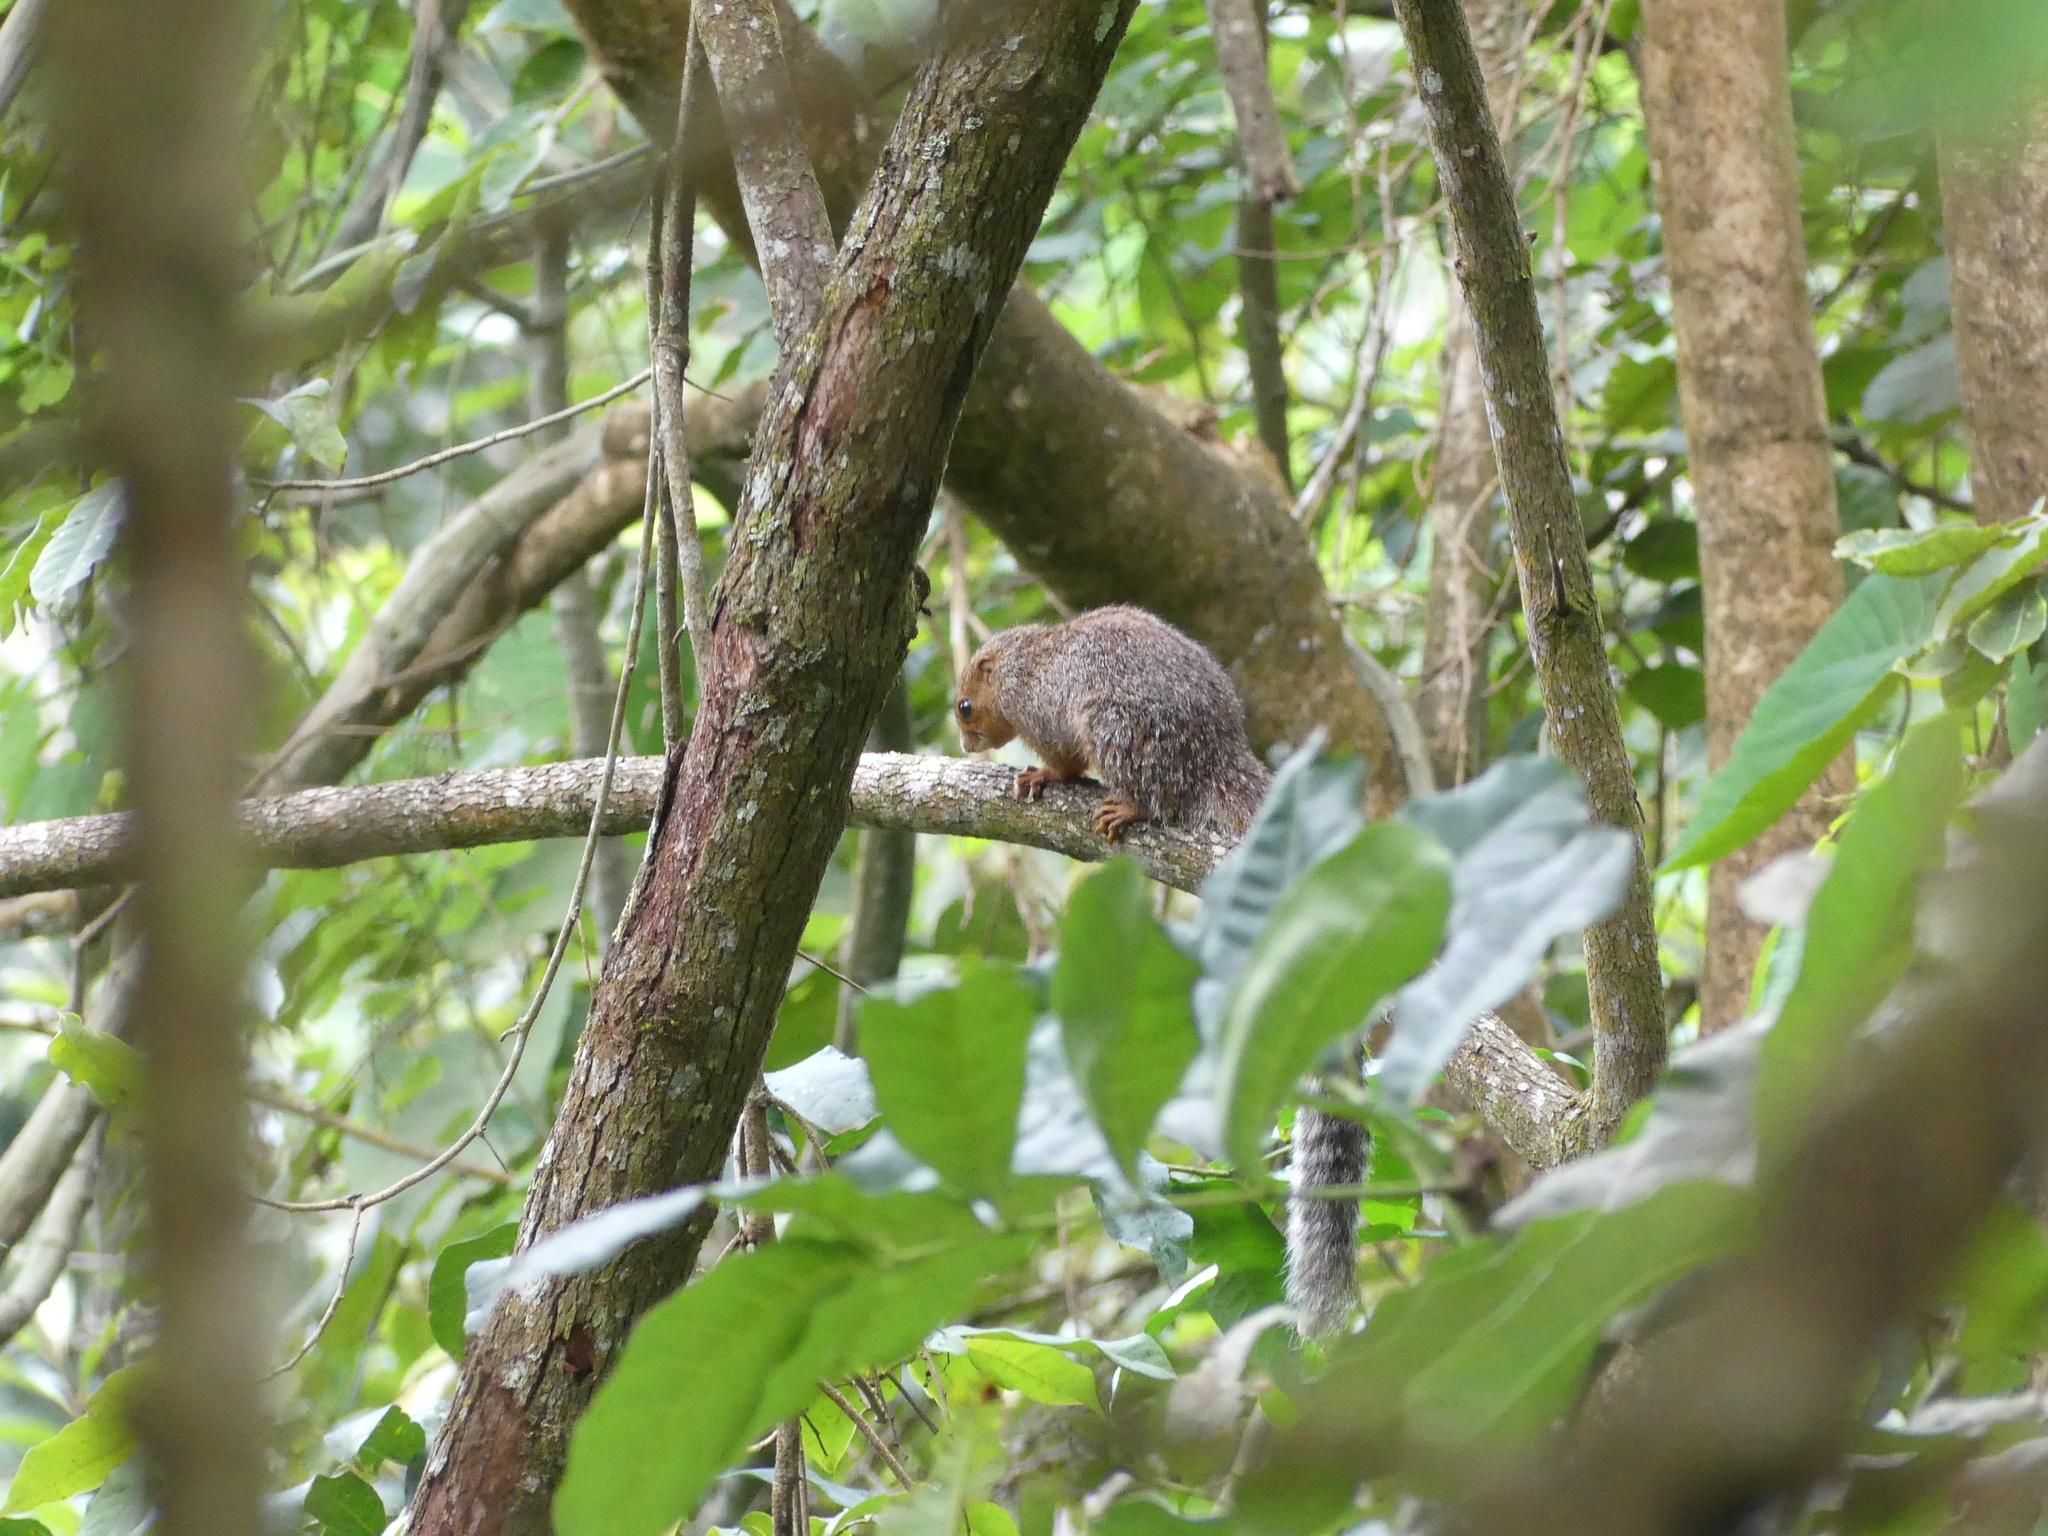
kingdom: Animalia
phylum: Chordata
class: Mammalia
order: Rodentia
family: Sciuridae
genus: Heliosciurus
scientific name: Heliosciurus undulatus
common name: Zanj sun squirrel
